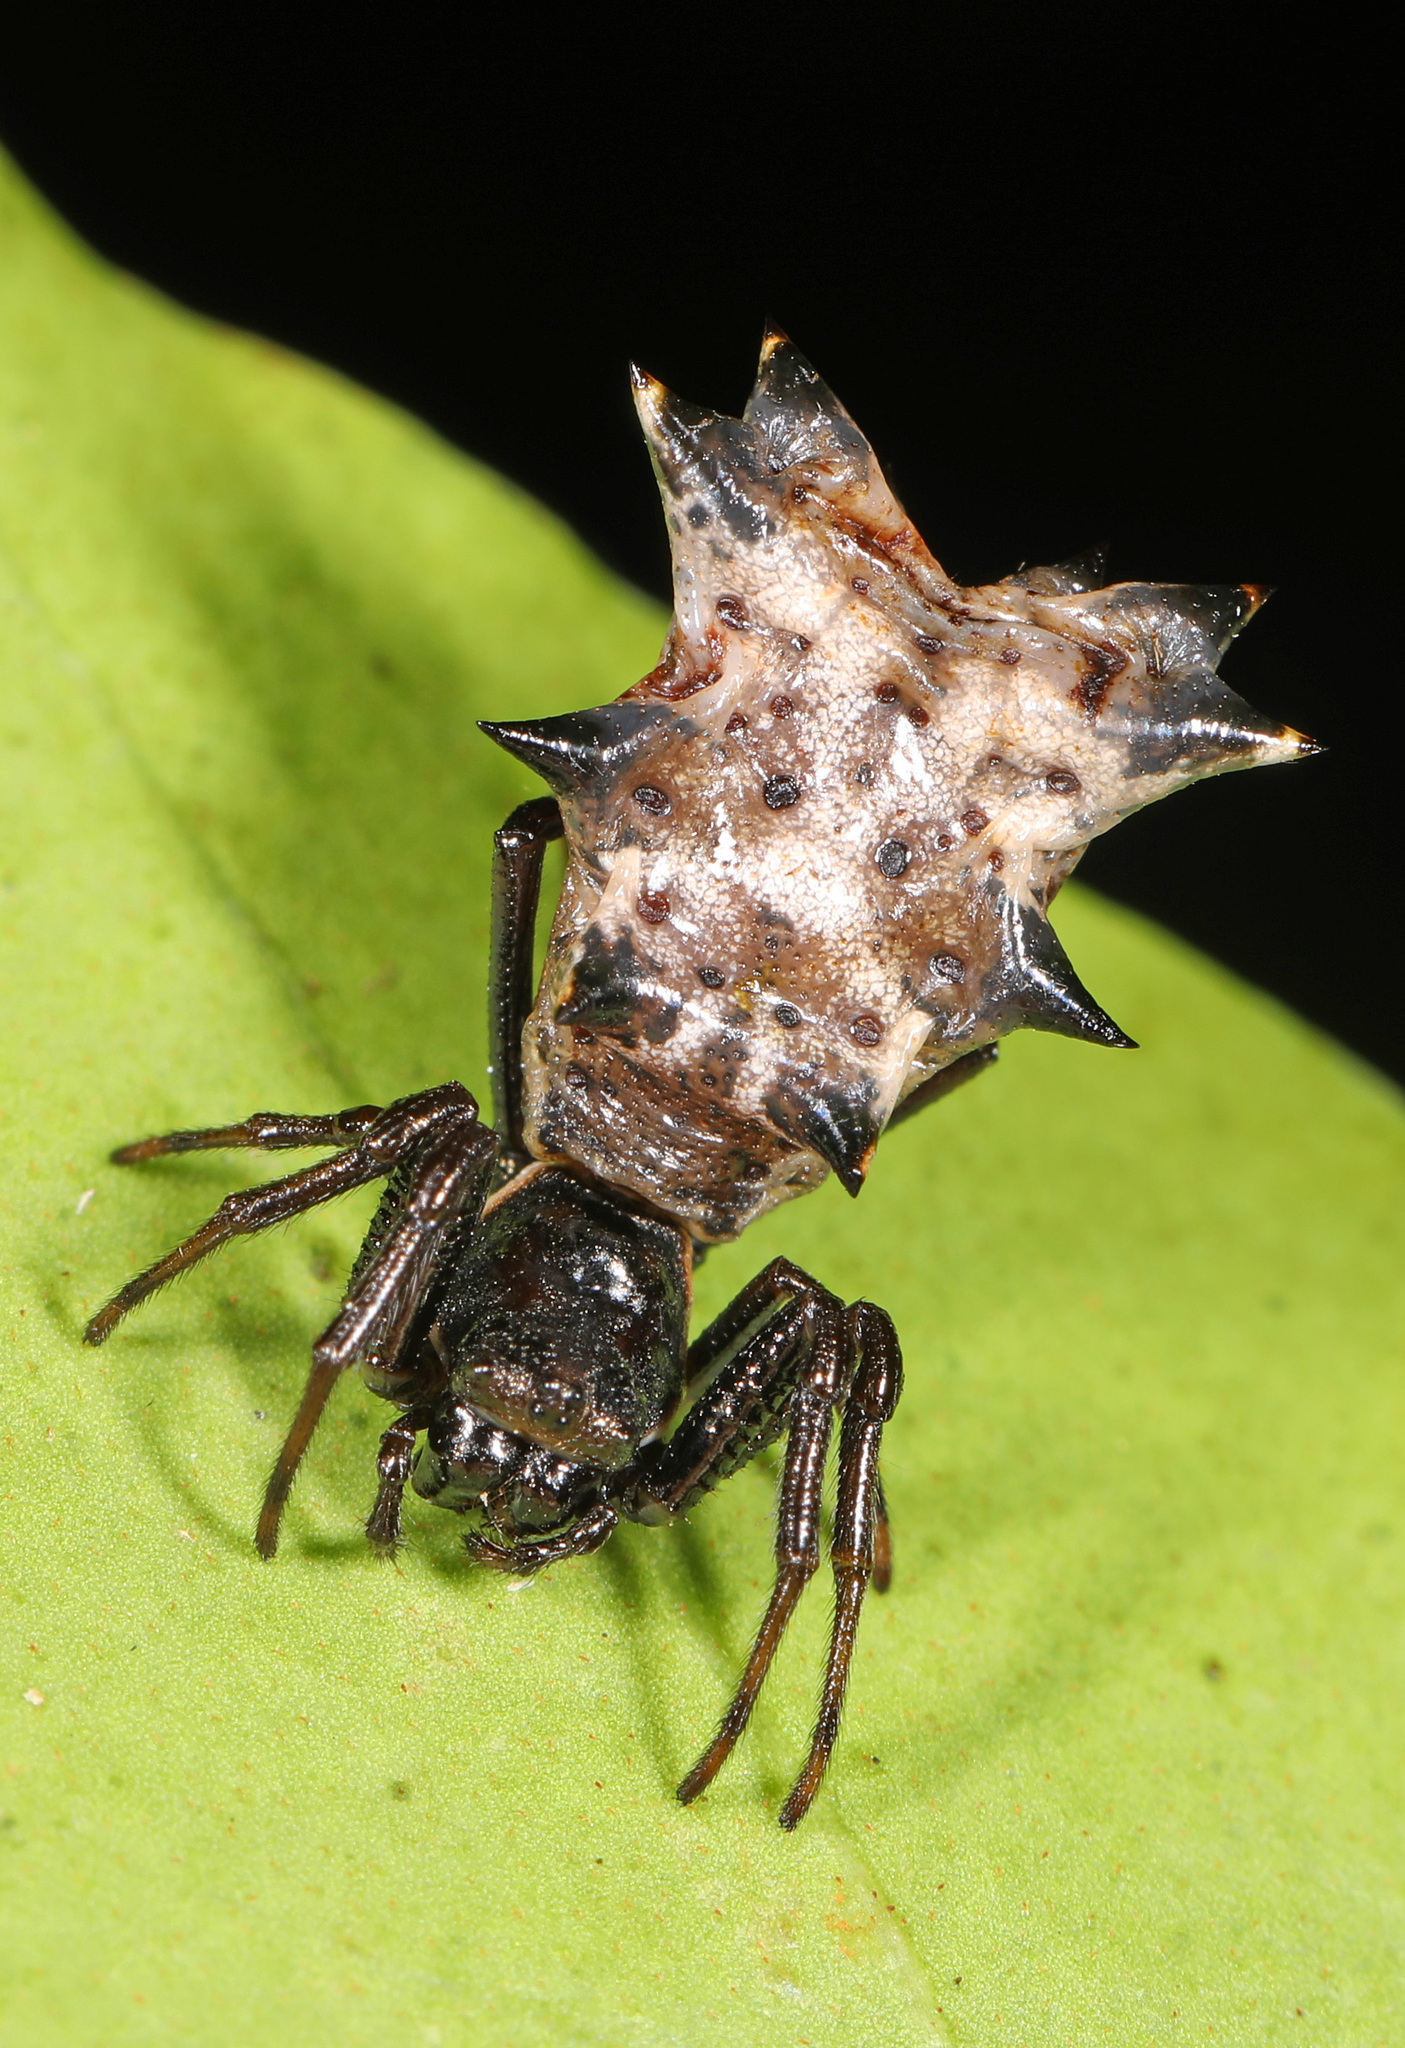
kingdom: Animalia
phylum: Arthropoda
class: Arachnida
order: Araneae
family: Araneidae
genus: Micrathena
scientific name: Micrathena gracilis
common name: Orb weavers
